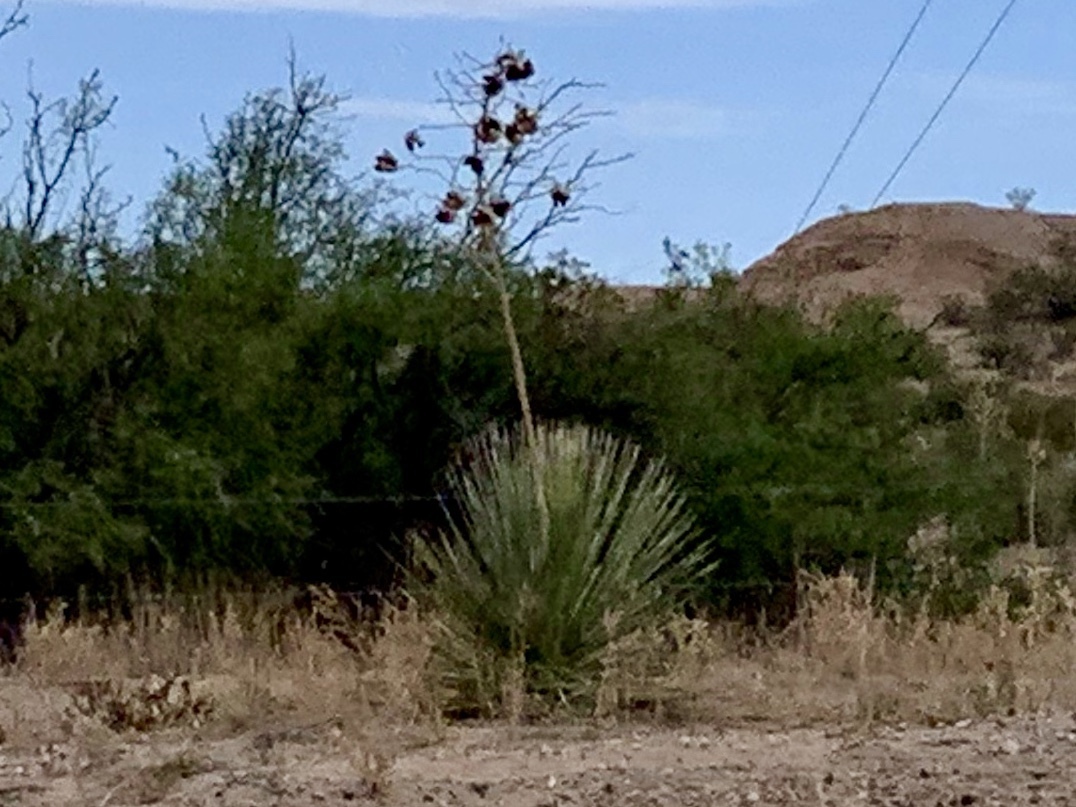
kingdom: Plantae
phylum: Tracheophyta
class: Liliopsida
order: Asparagales
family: Asparagaceae
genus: Yucca
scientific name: Yucca elata
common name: Palmella
